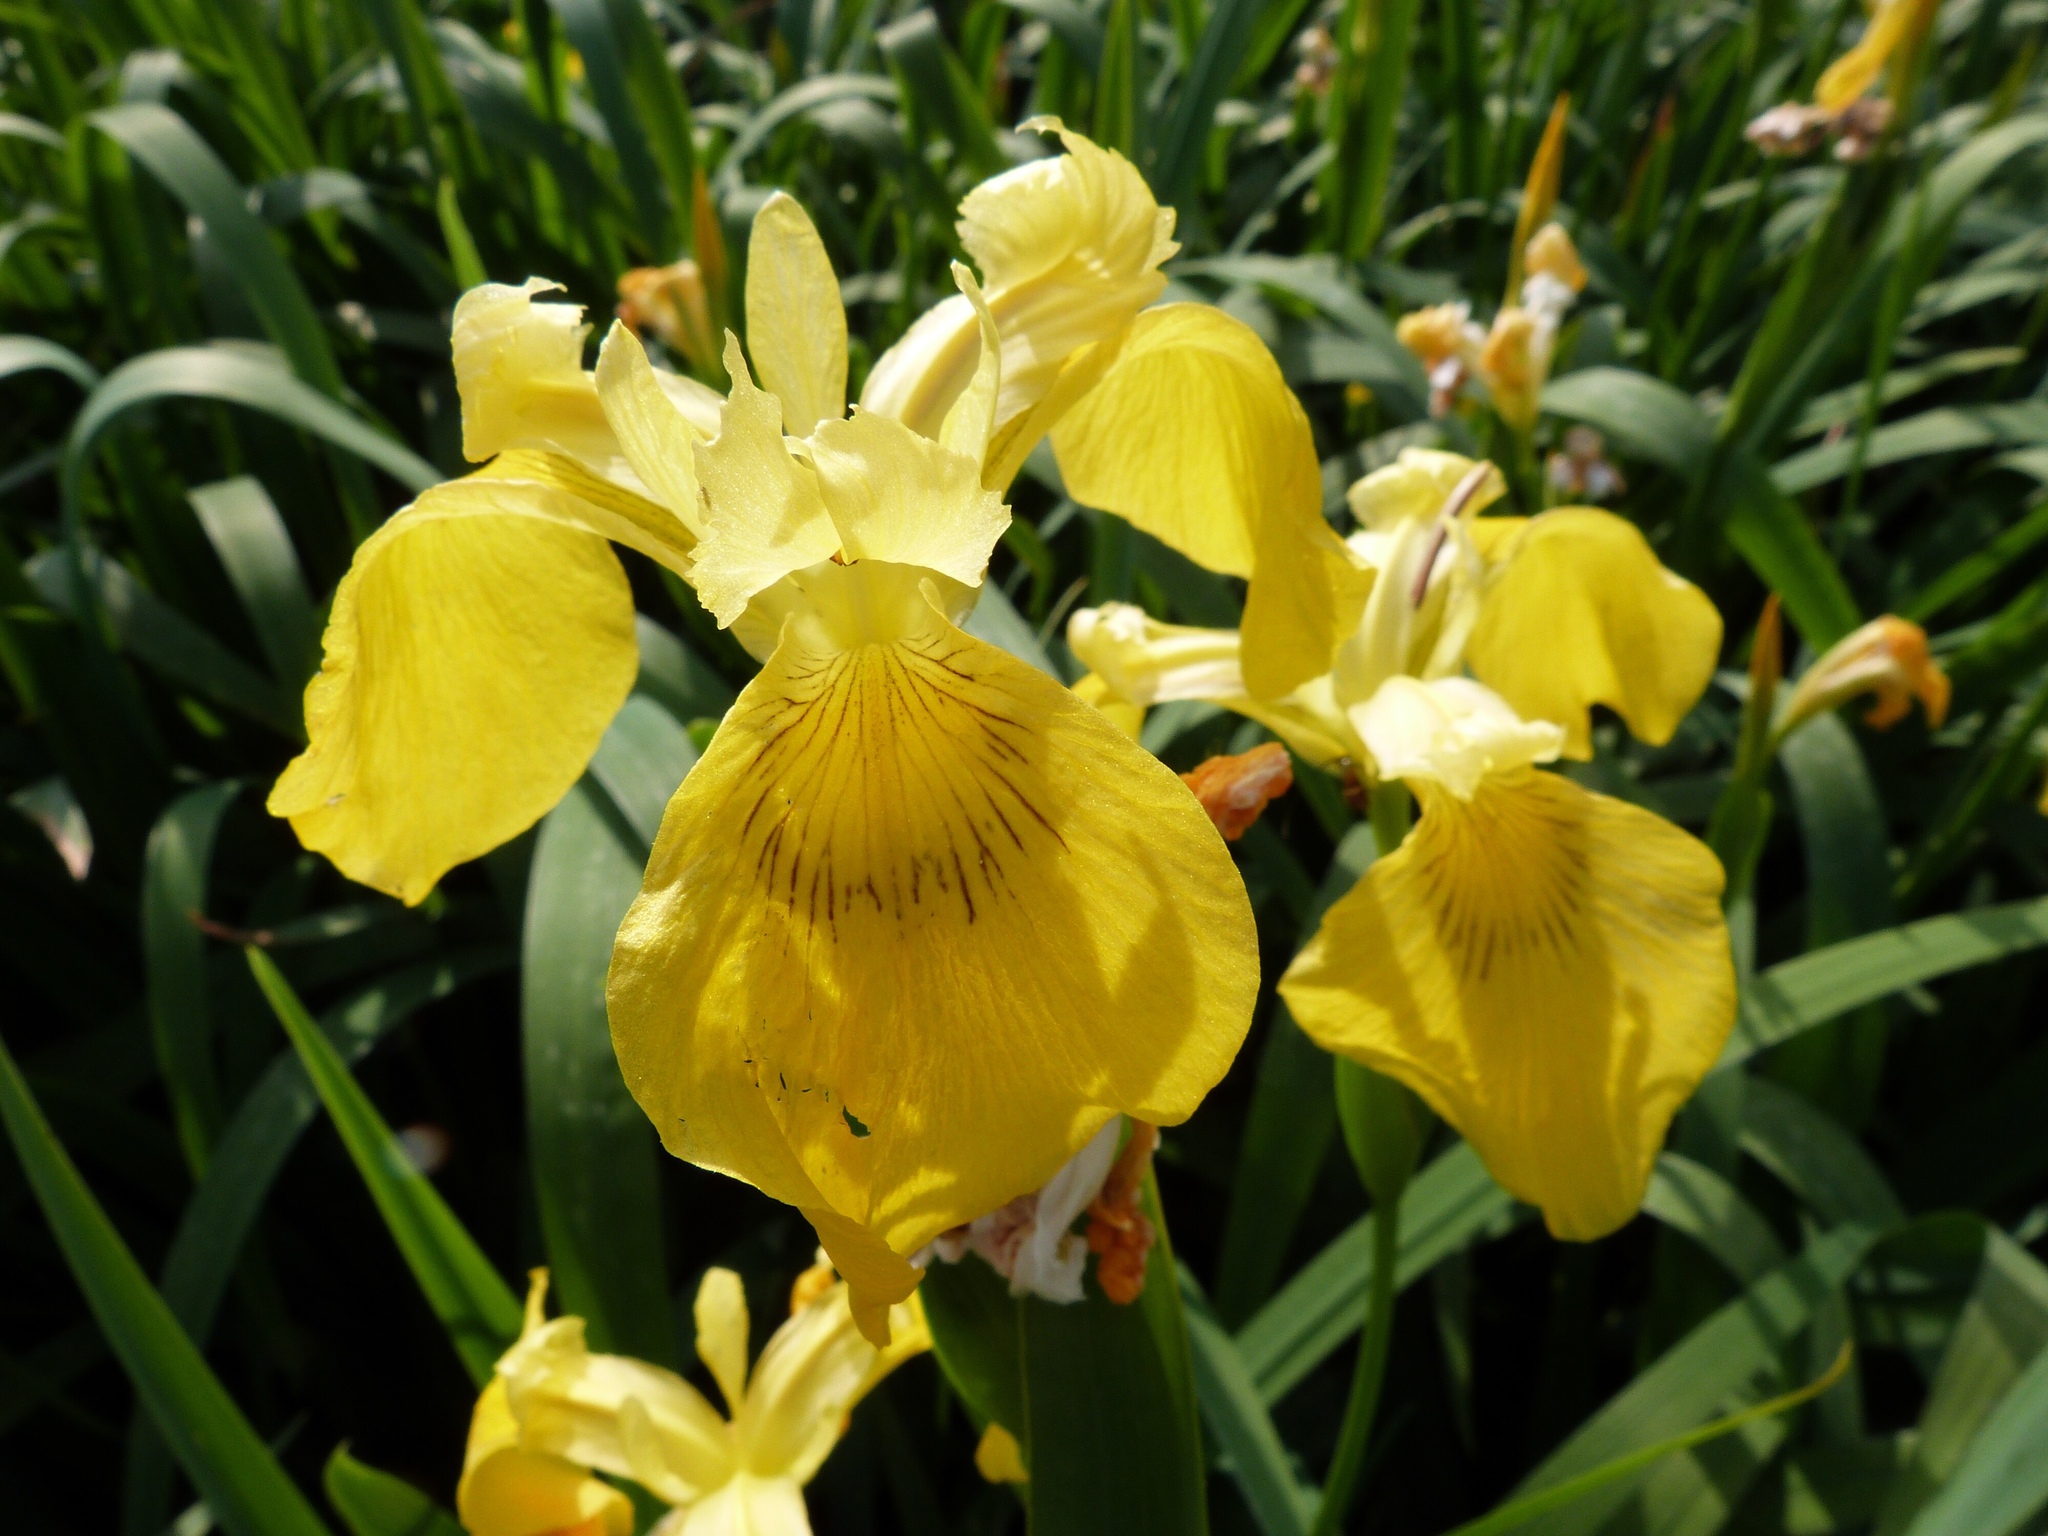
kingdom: Plantae
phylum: Tracheophyta
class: Liliopsida
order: Asparagales
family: Iridaceae
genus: Iris
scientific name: Iris pseudacorus
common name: Yellow flag
